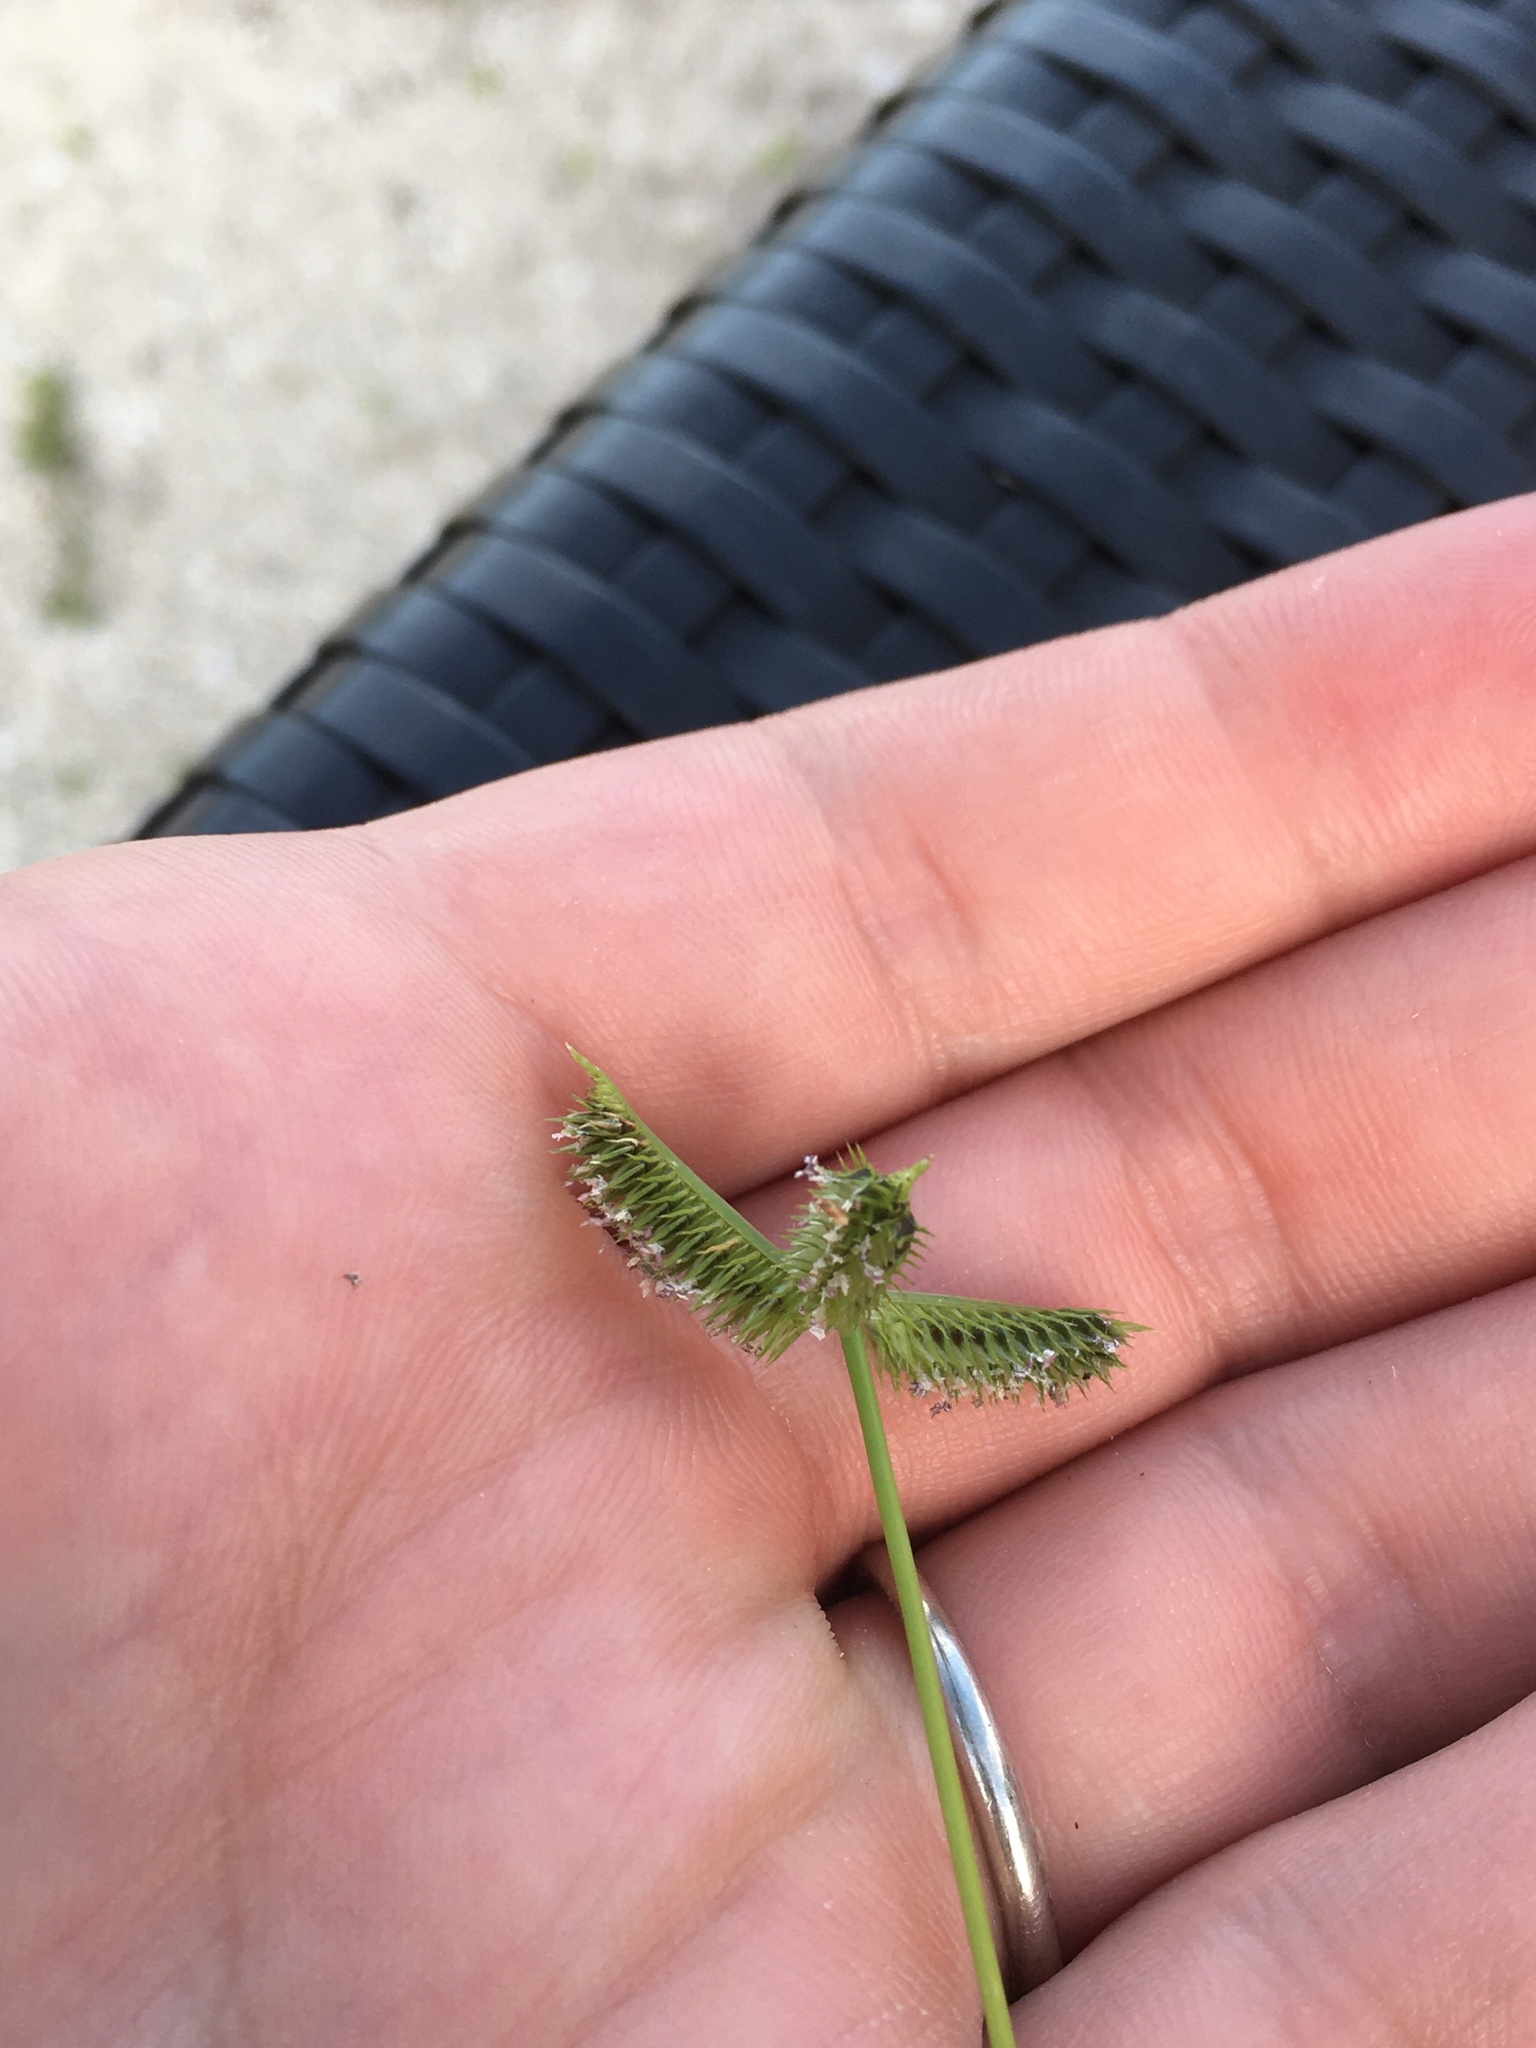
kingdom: Plantae
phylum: Tracheophyta
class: Liliopsida
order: Poales
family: Poaceae
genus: Dactyloctenium
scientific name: Dactyloctenium aegyptium
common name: Egyptian grass
